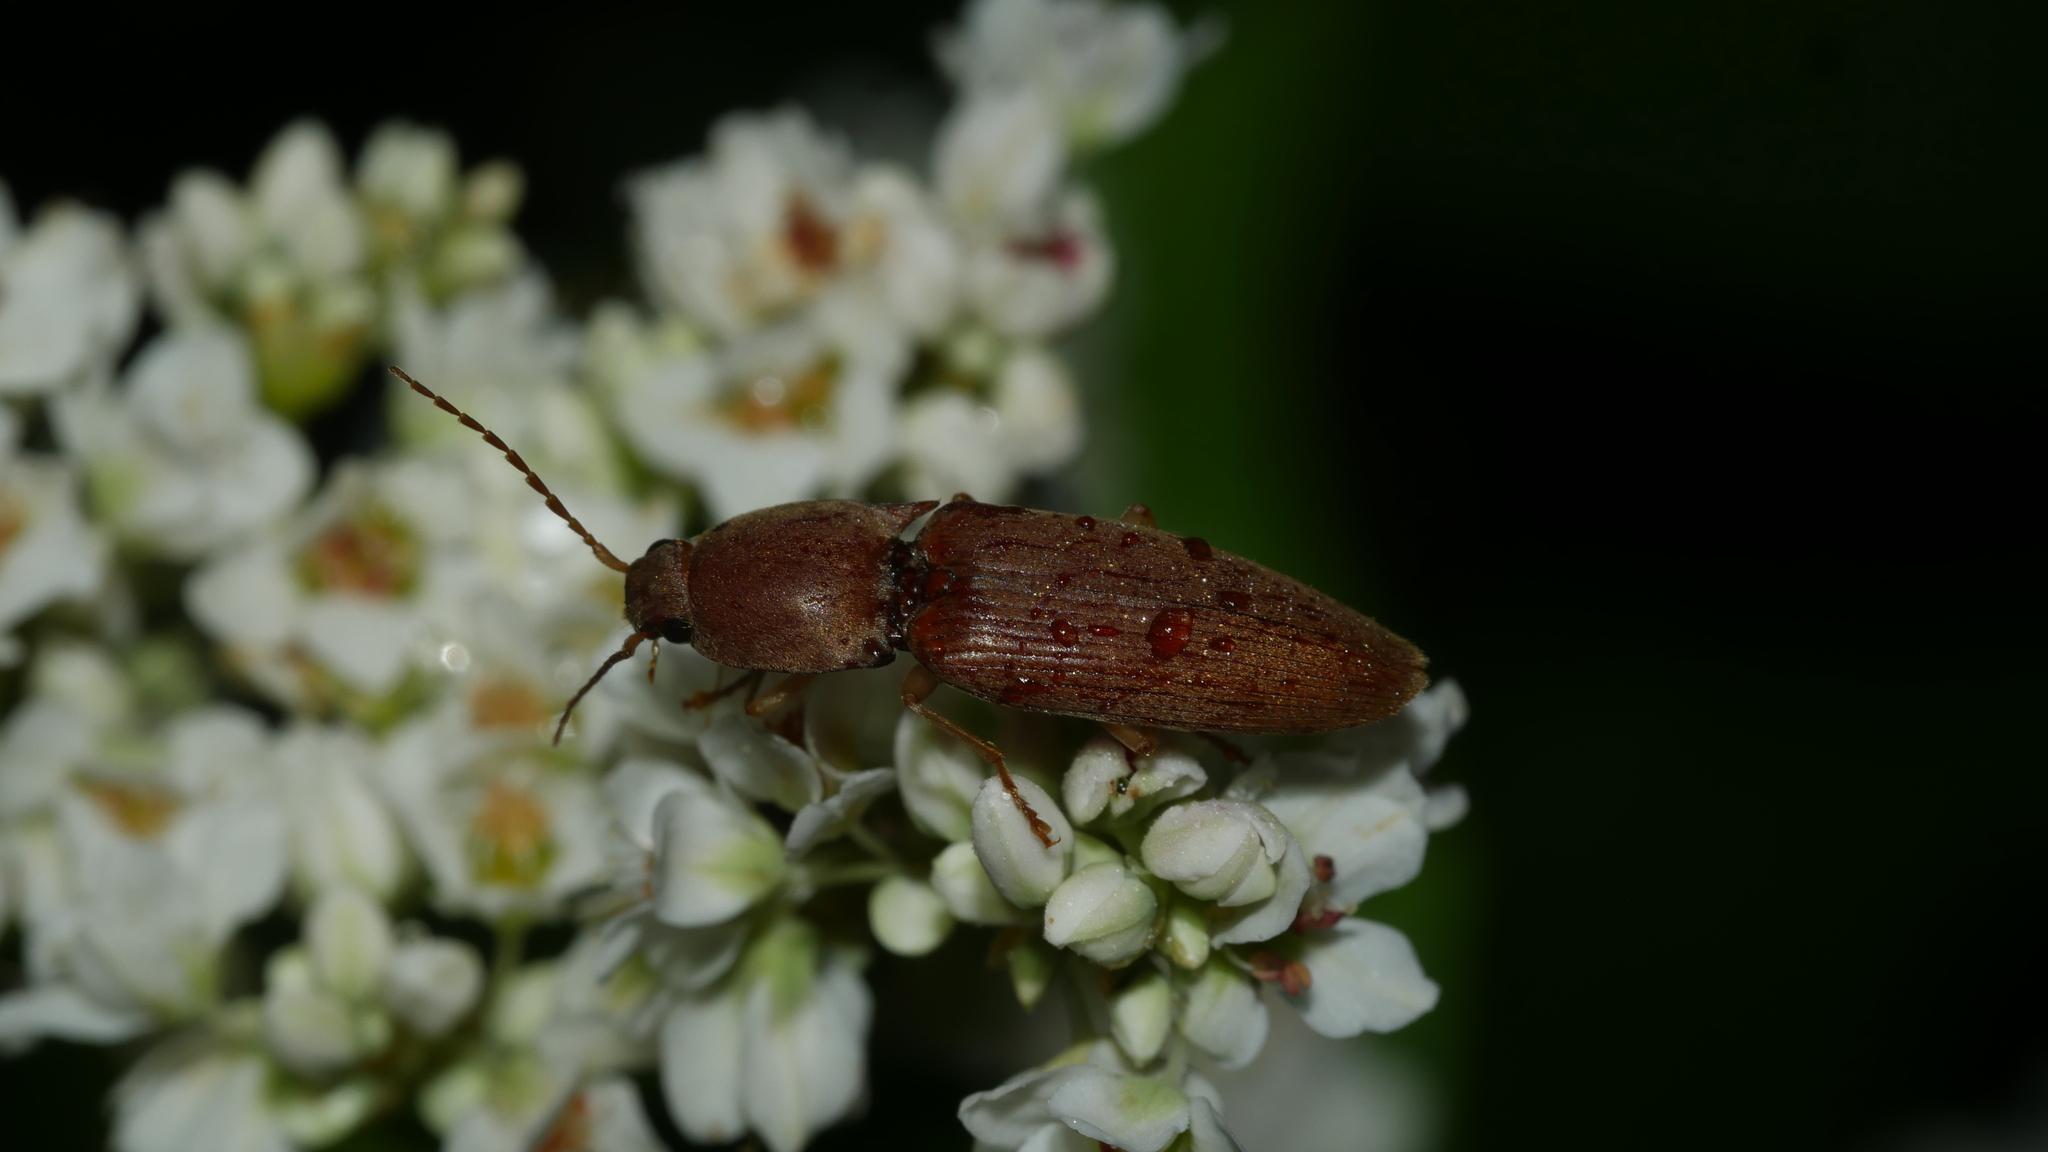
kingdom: Animalia
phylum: Arthropoda
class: Insecta
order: Coleoptera
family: Elateridae
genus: Monocrepidius
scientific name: Monocrepidius lividus
